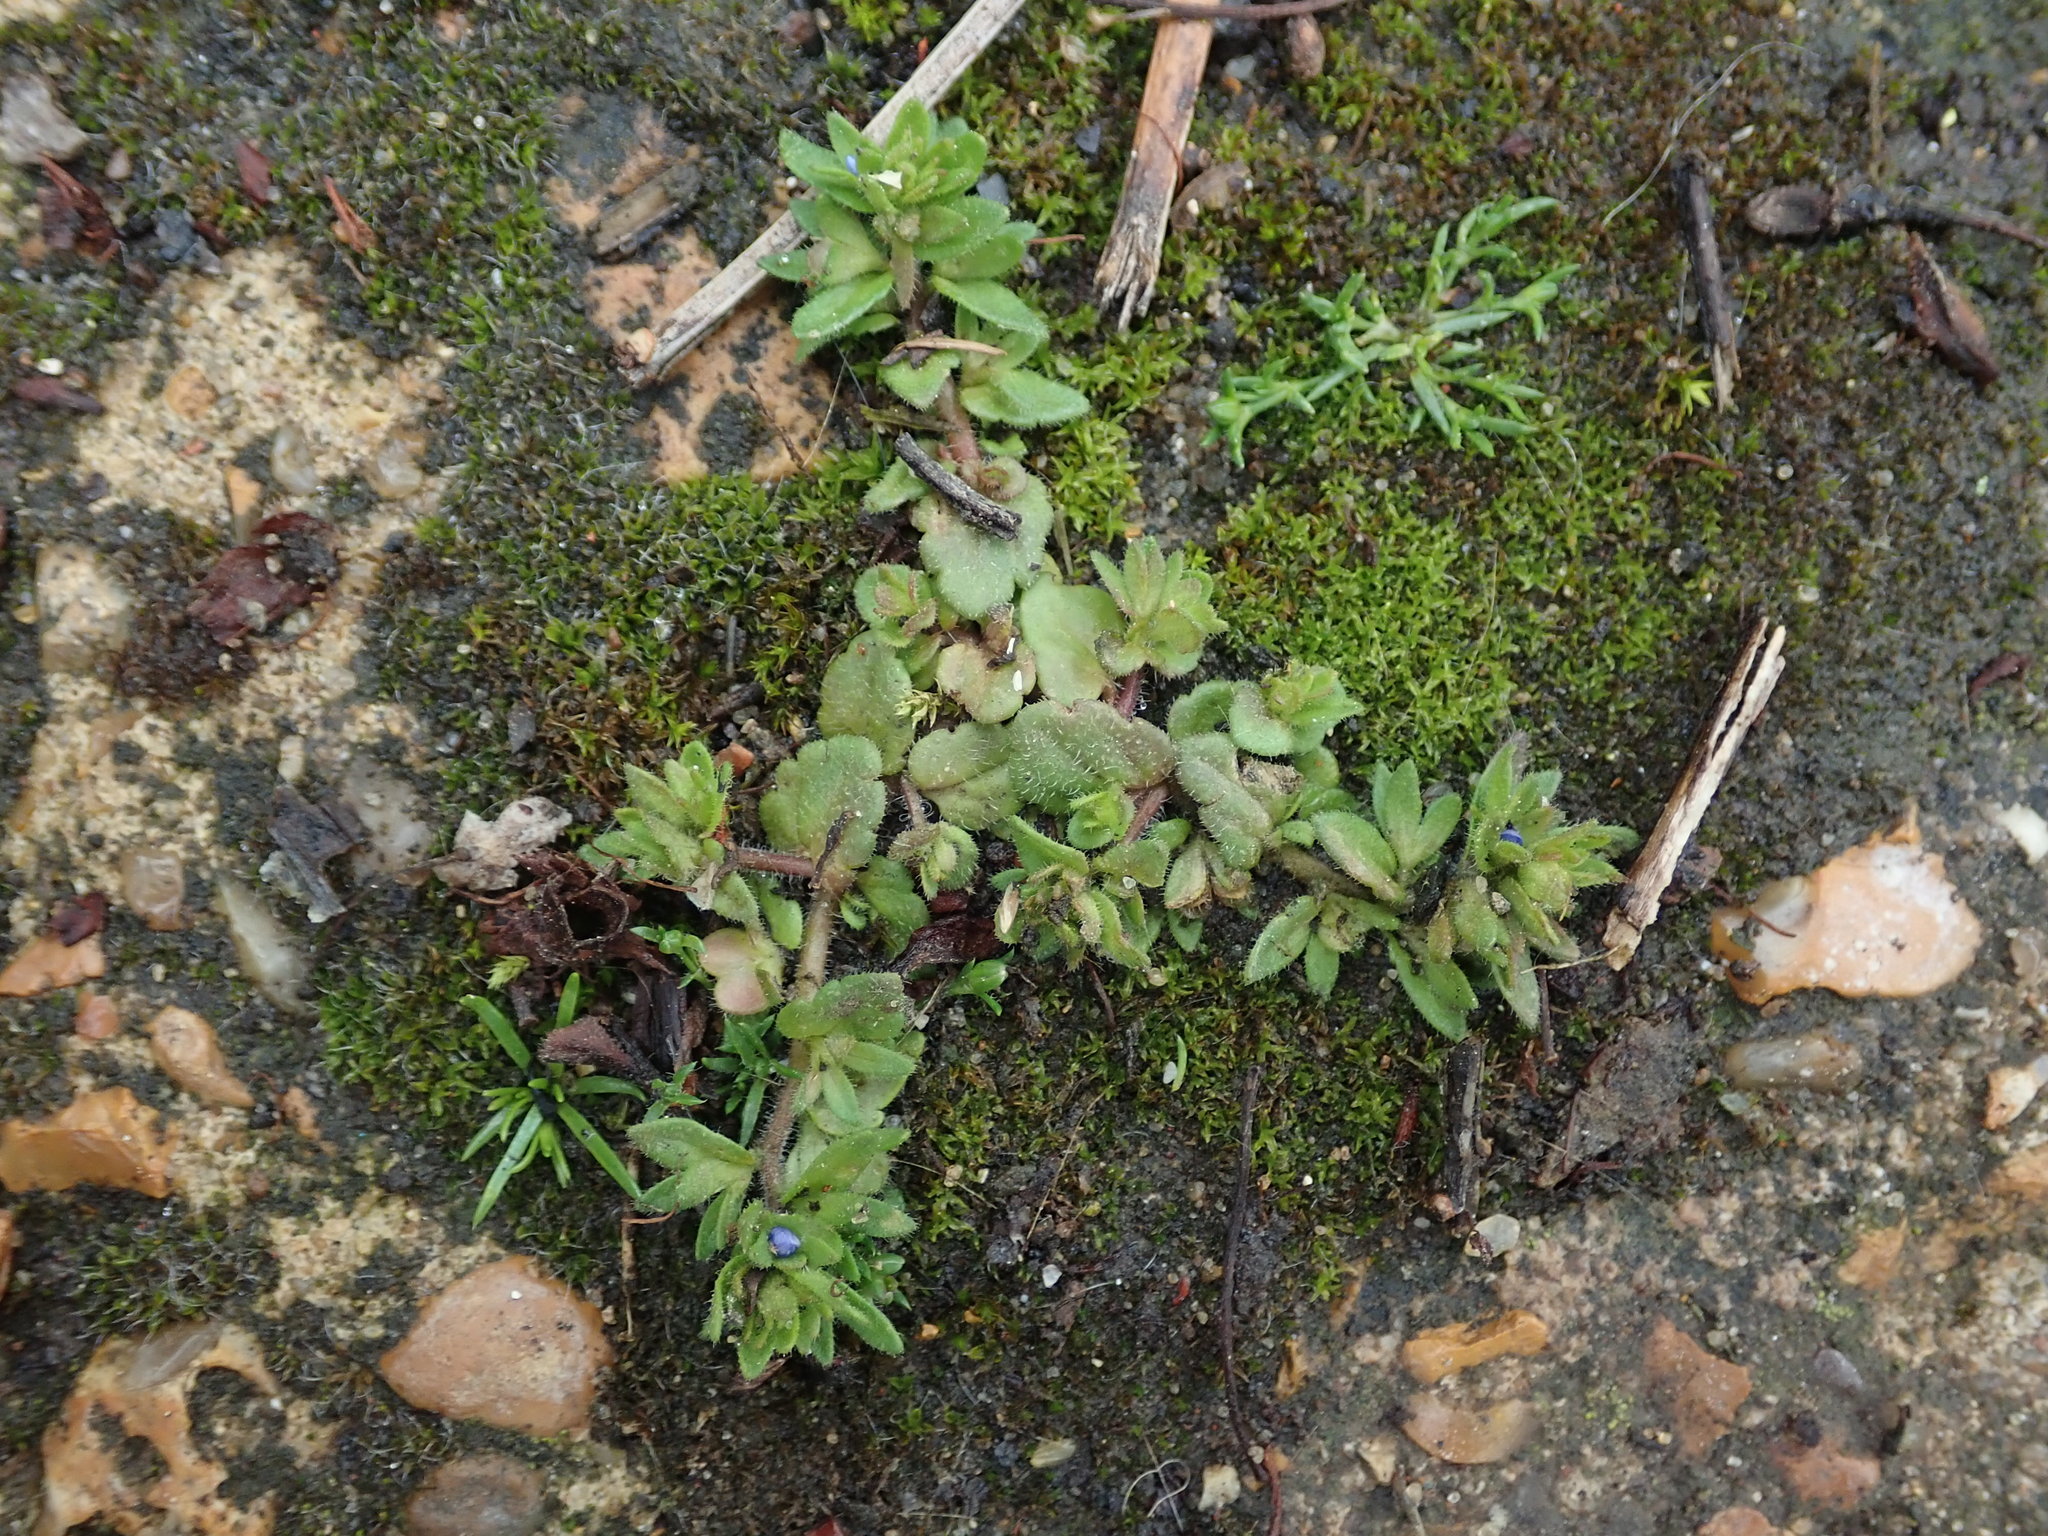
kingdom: Plantae
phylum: Tracheophyta
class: Magnoliopsida
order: Lamiales
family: Plantaginaceae
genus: Veronica
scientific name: Veronica arvensis
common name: Corn speedwell
